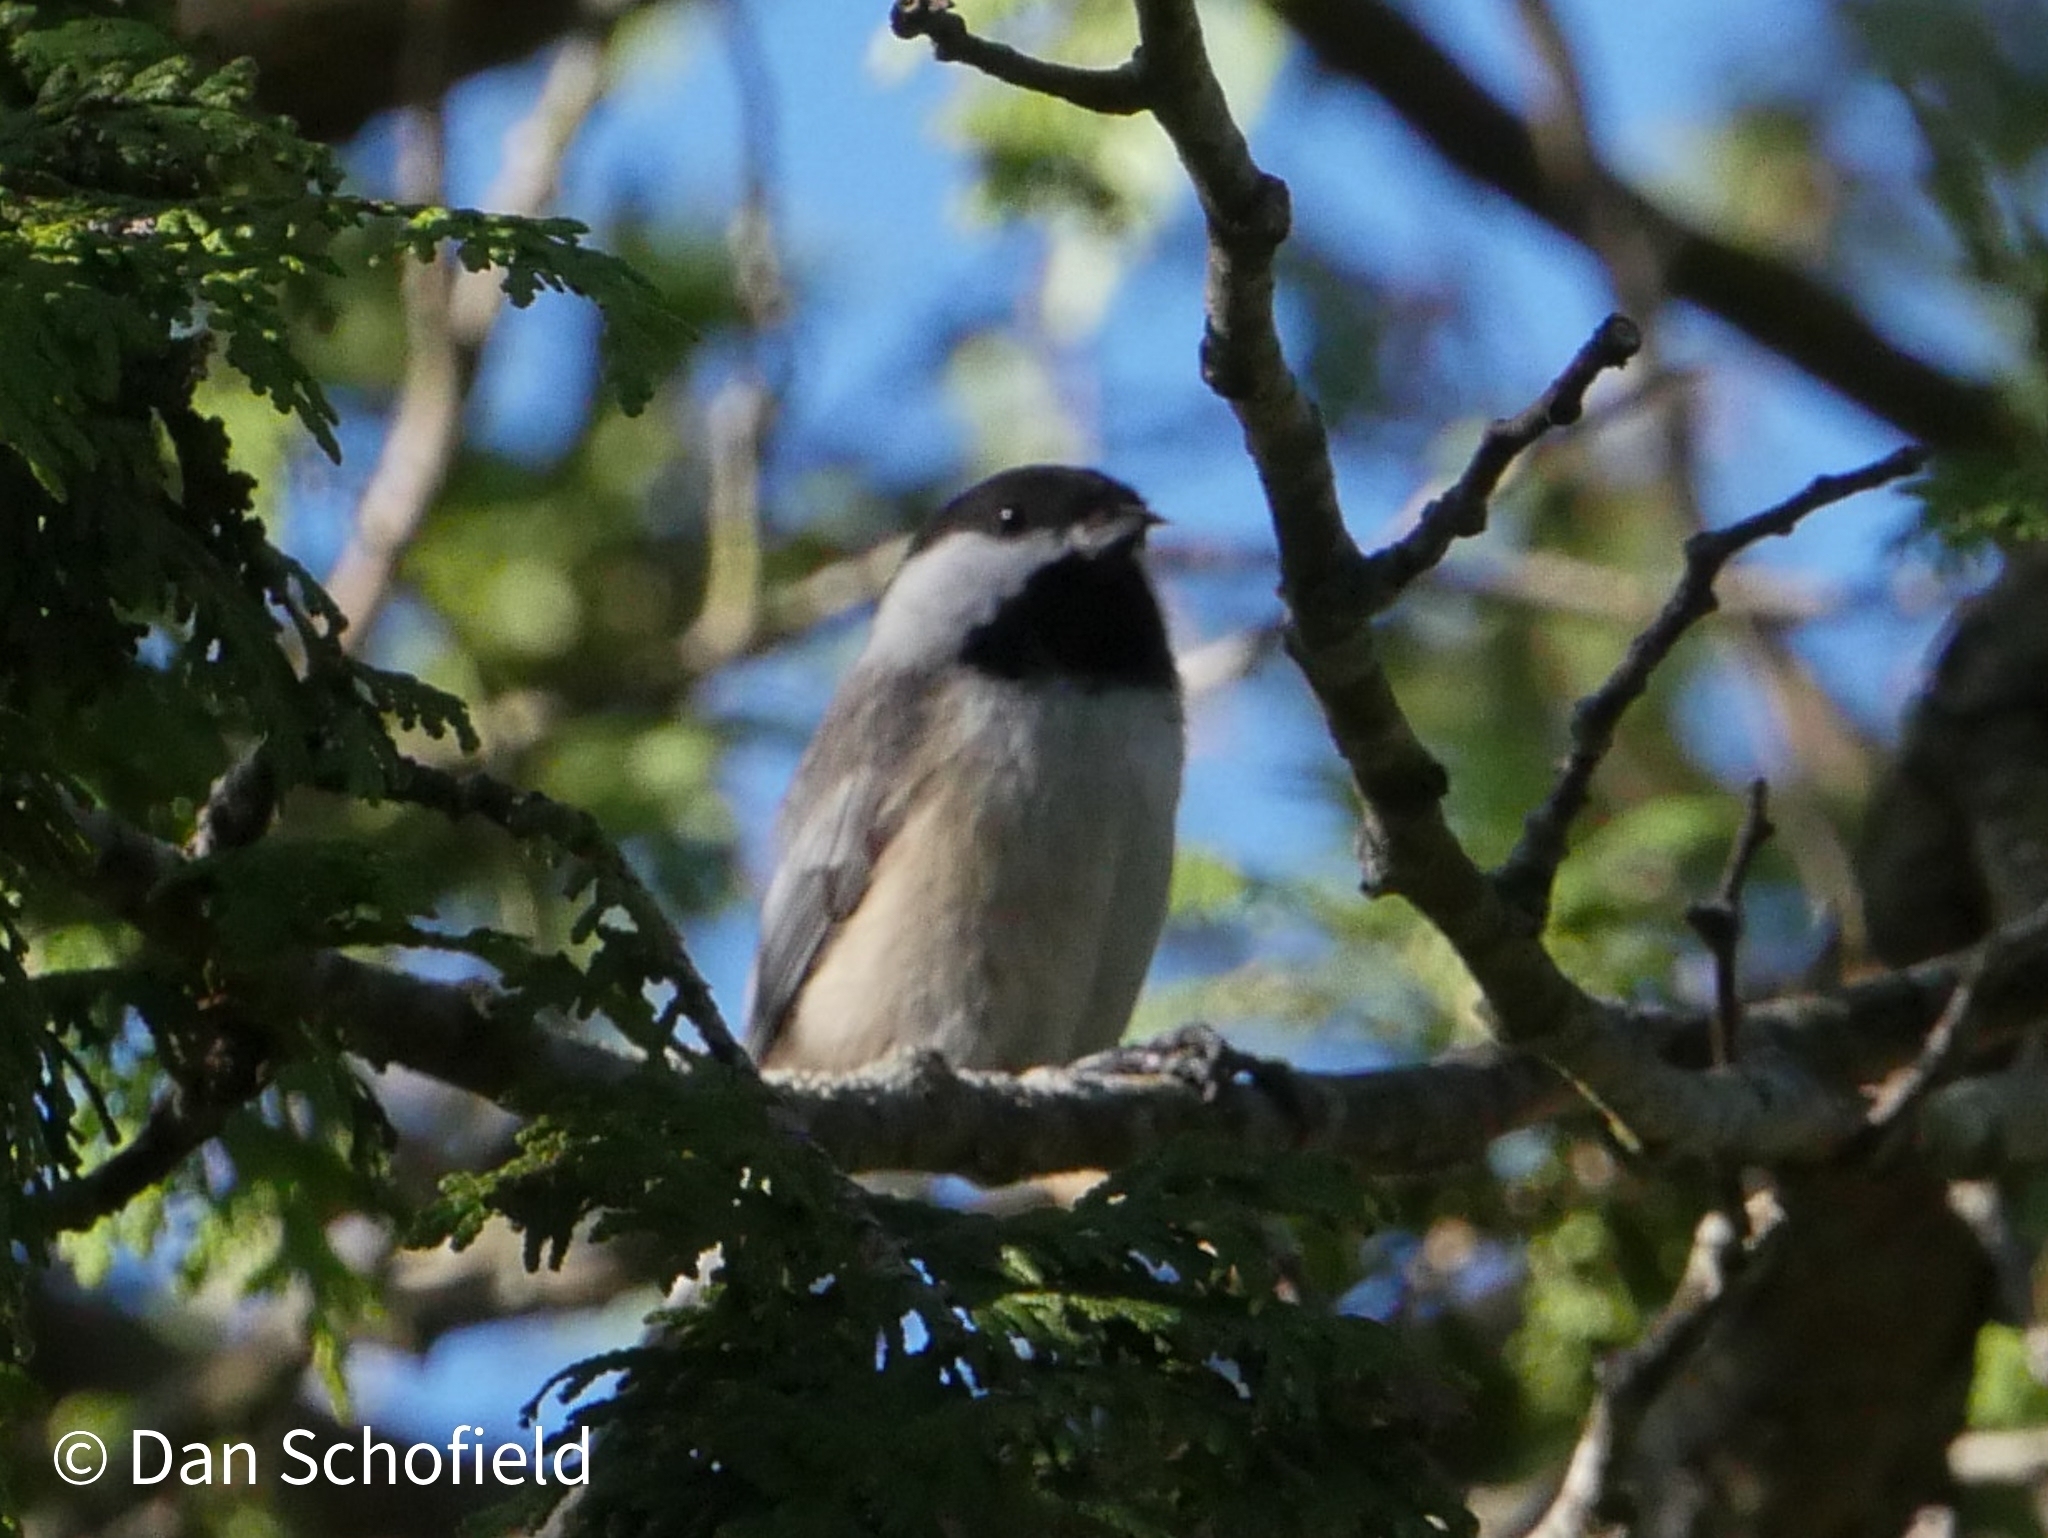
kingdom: Animalia
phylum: Chordata
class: Aves
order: Passeriformes
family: Paridae
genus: Poecile
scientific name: Poecile atricapillus
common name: Black-capped chickadee
